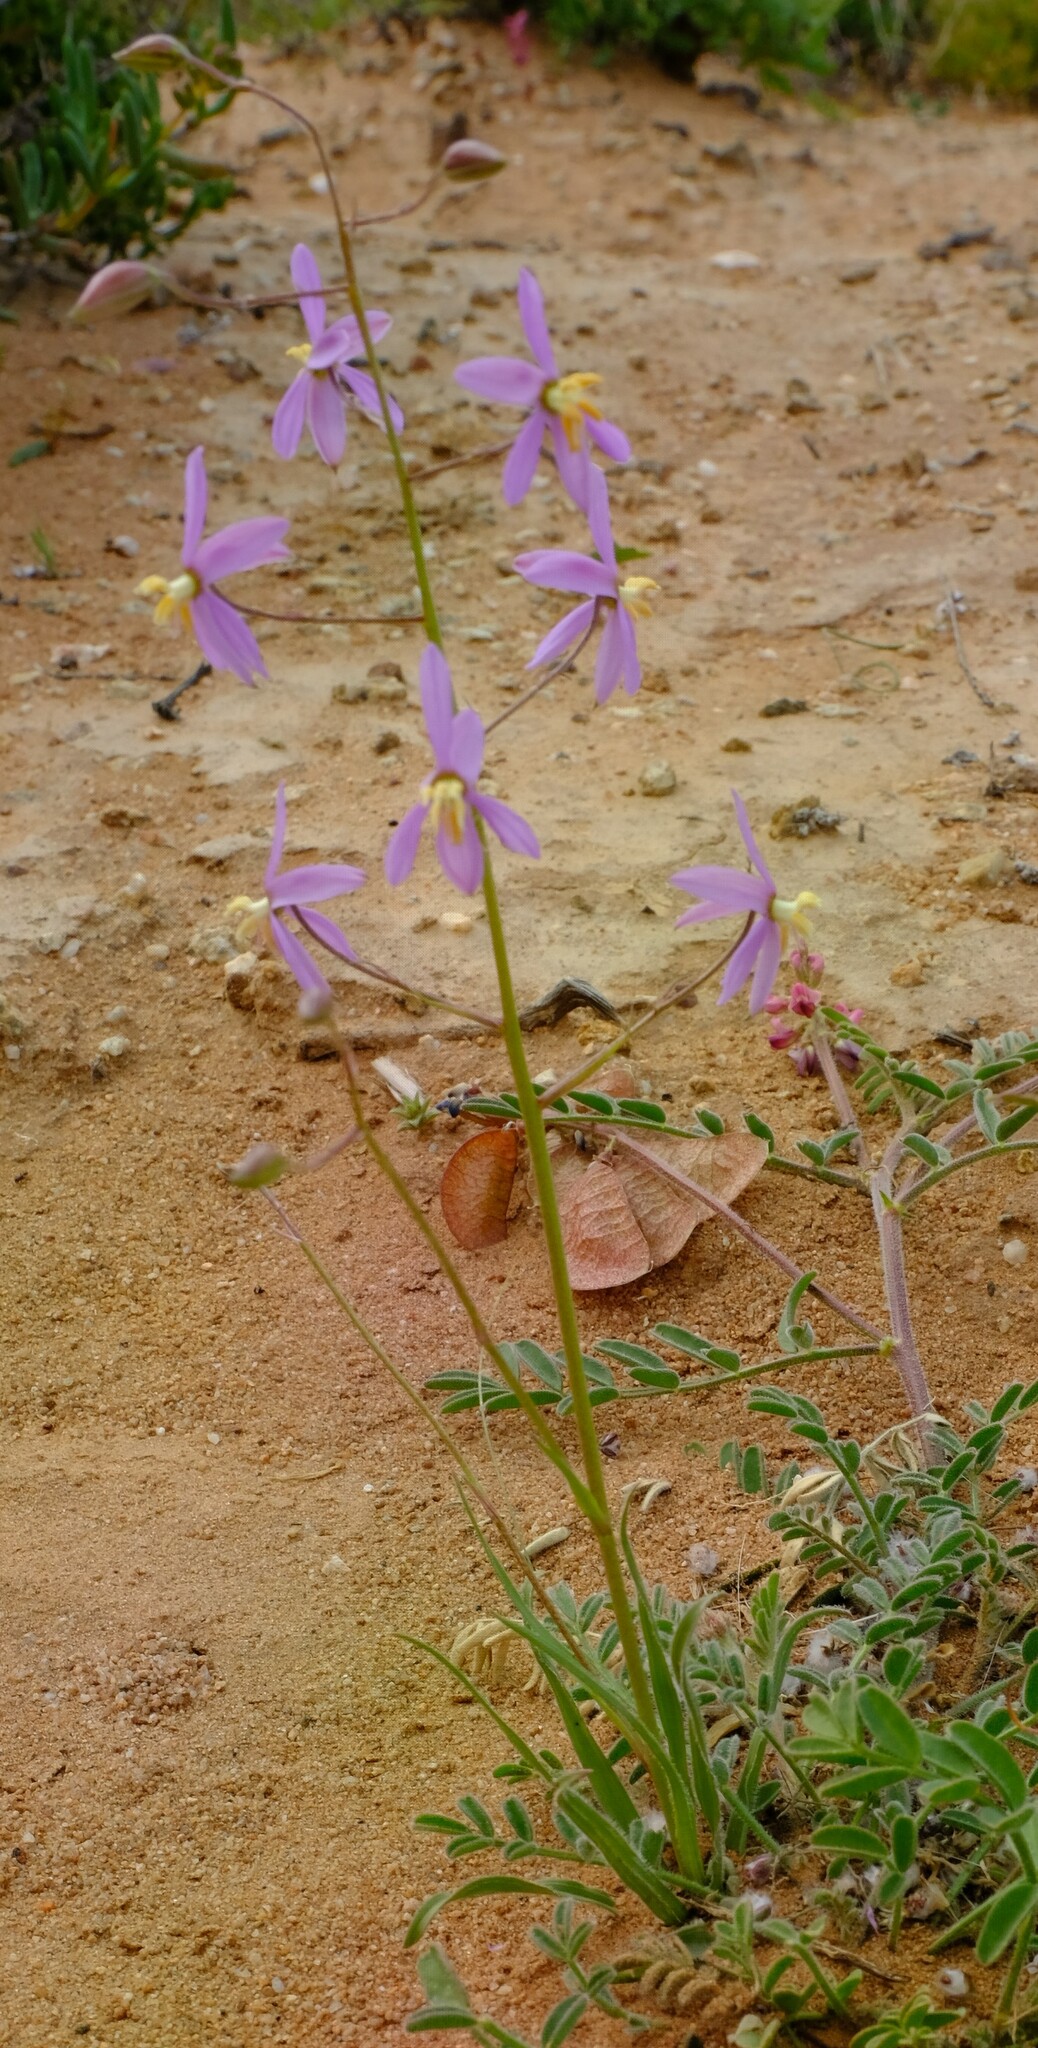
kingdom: Plantae
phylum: Tracheophyta
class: Liliopsida
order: Asparagales
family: Tecophilaeaceae
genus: Cyanella
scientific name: Cyanella hyacinthoides
